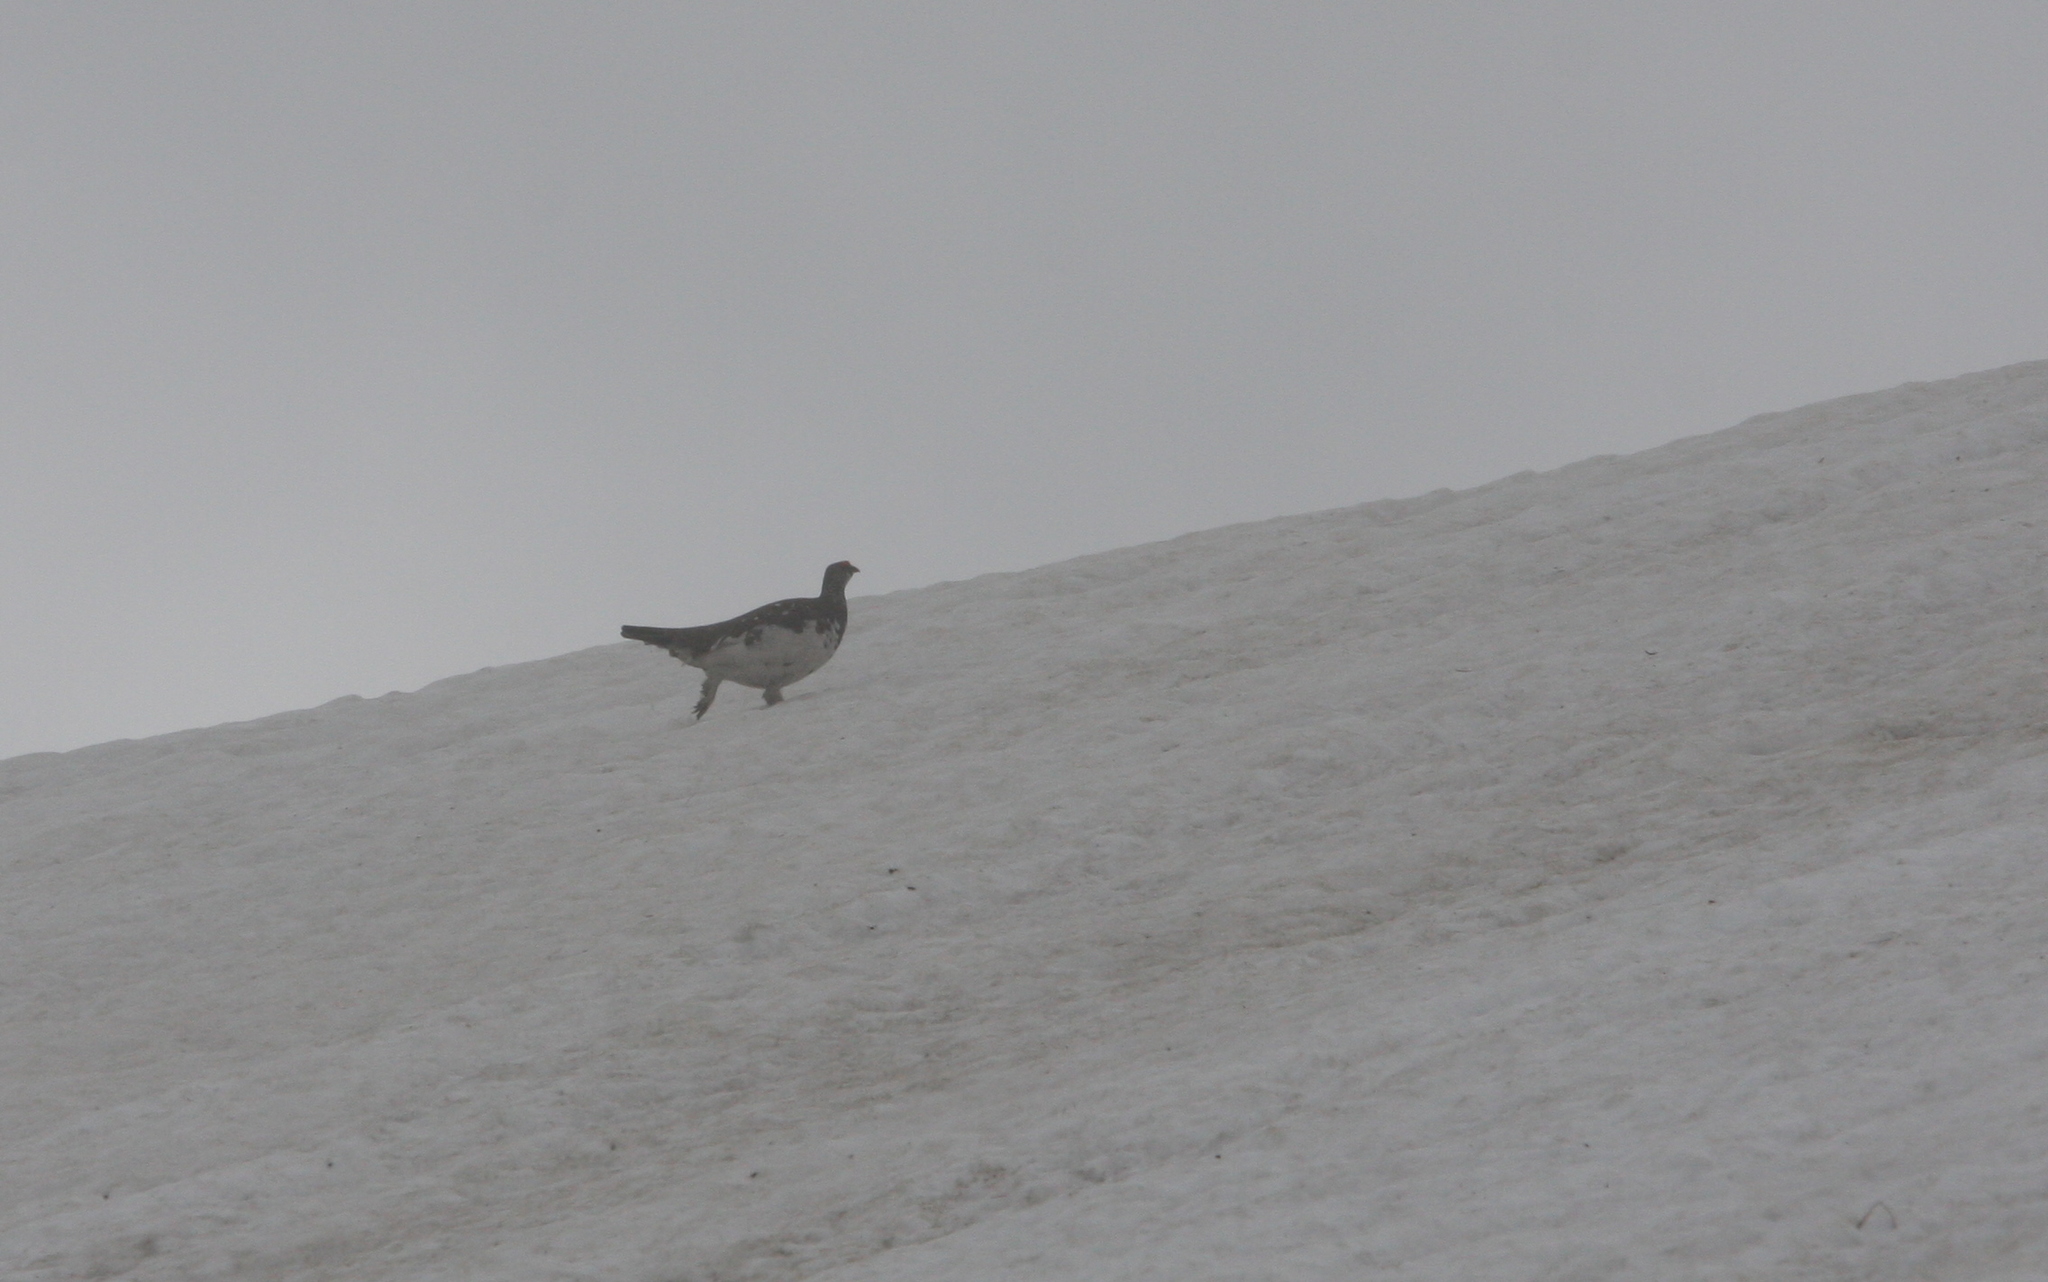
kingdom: Animalia
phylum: Chordata
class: Aves
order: Galliformes
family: Phasianidae
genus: Lagopus
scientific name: Lagopus muta
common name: Rock ptarmigan
